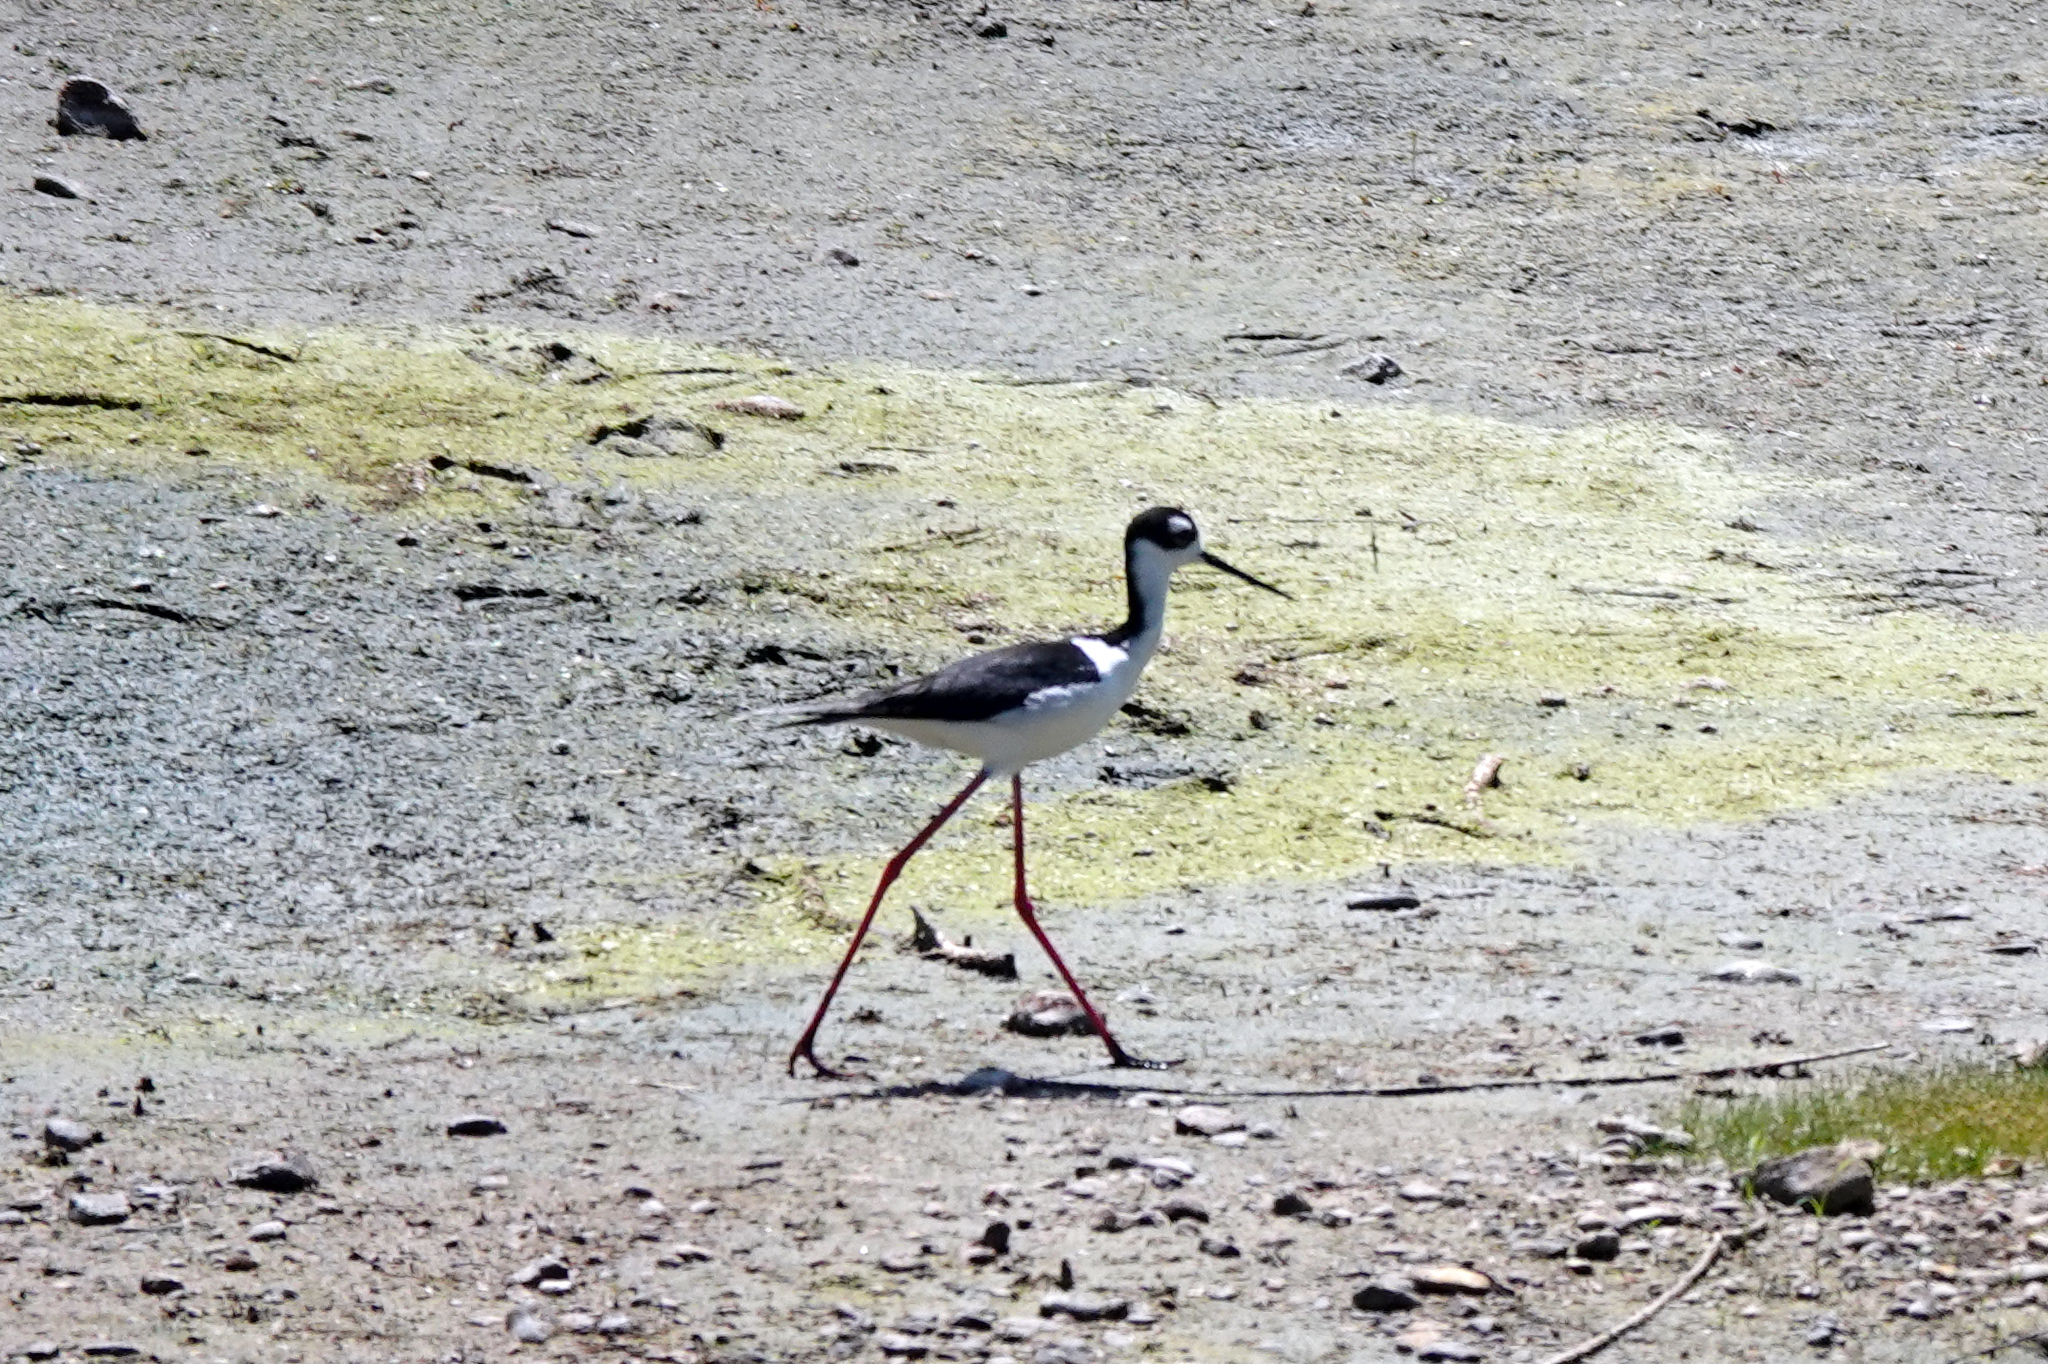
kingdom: Animalia
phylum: Chordata
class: Aves
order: Charadriiformes
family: Recurvirostridae
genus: Himantopus
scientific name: Himantopus mexicanus
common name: Black-necked stilt
